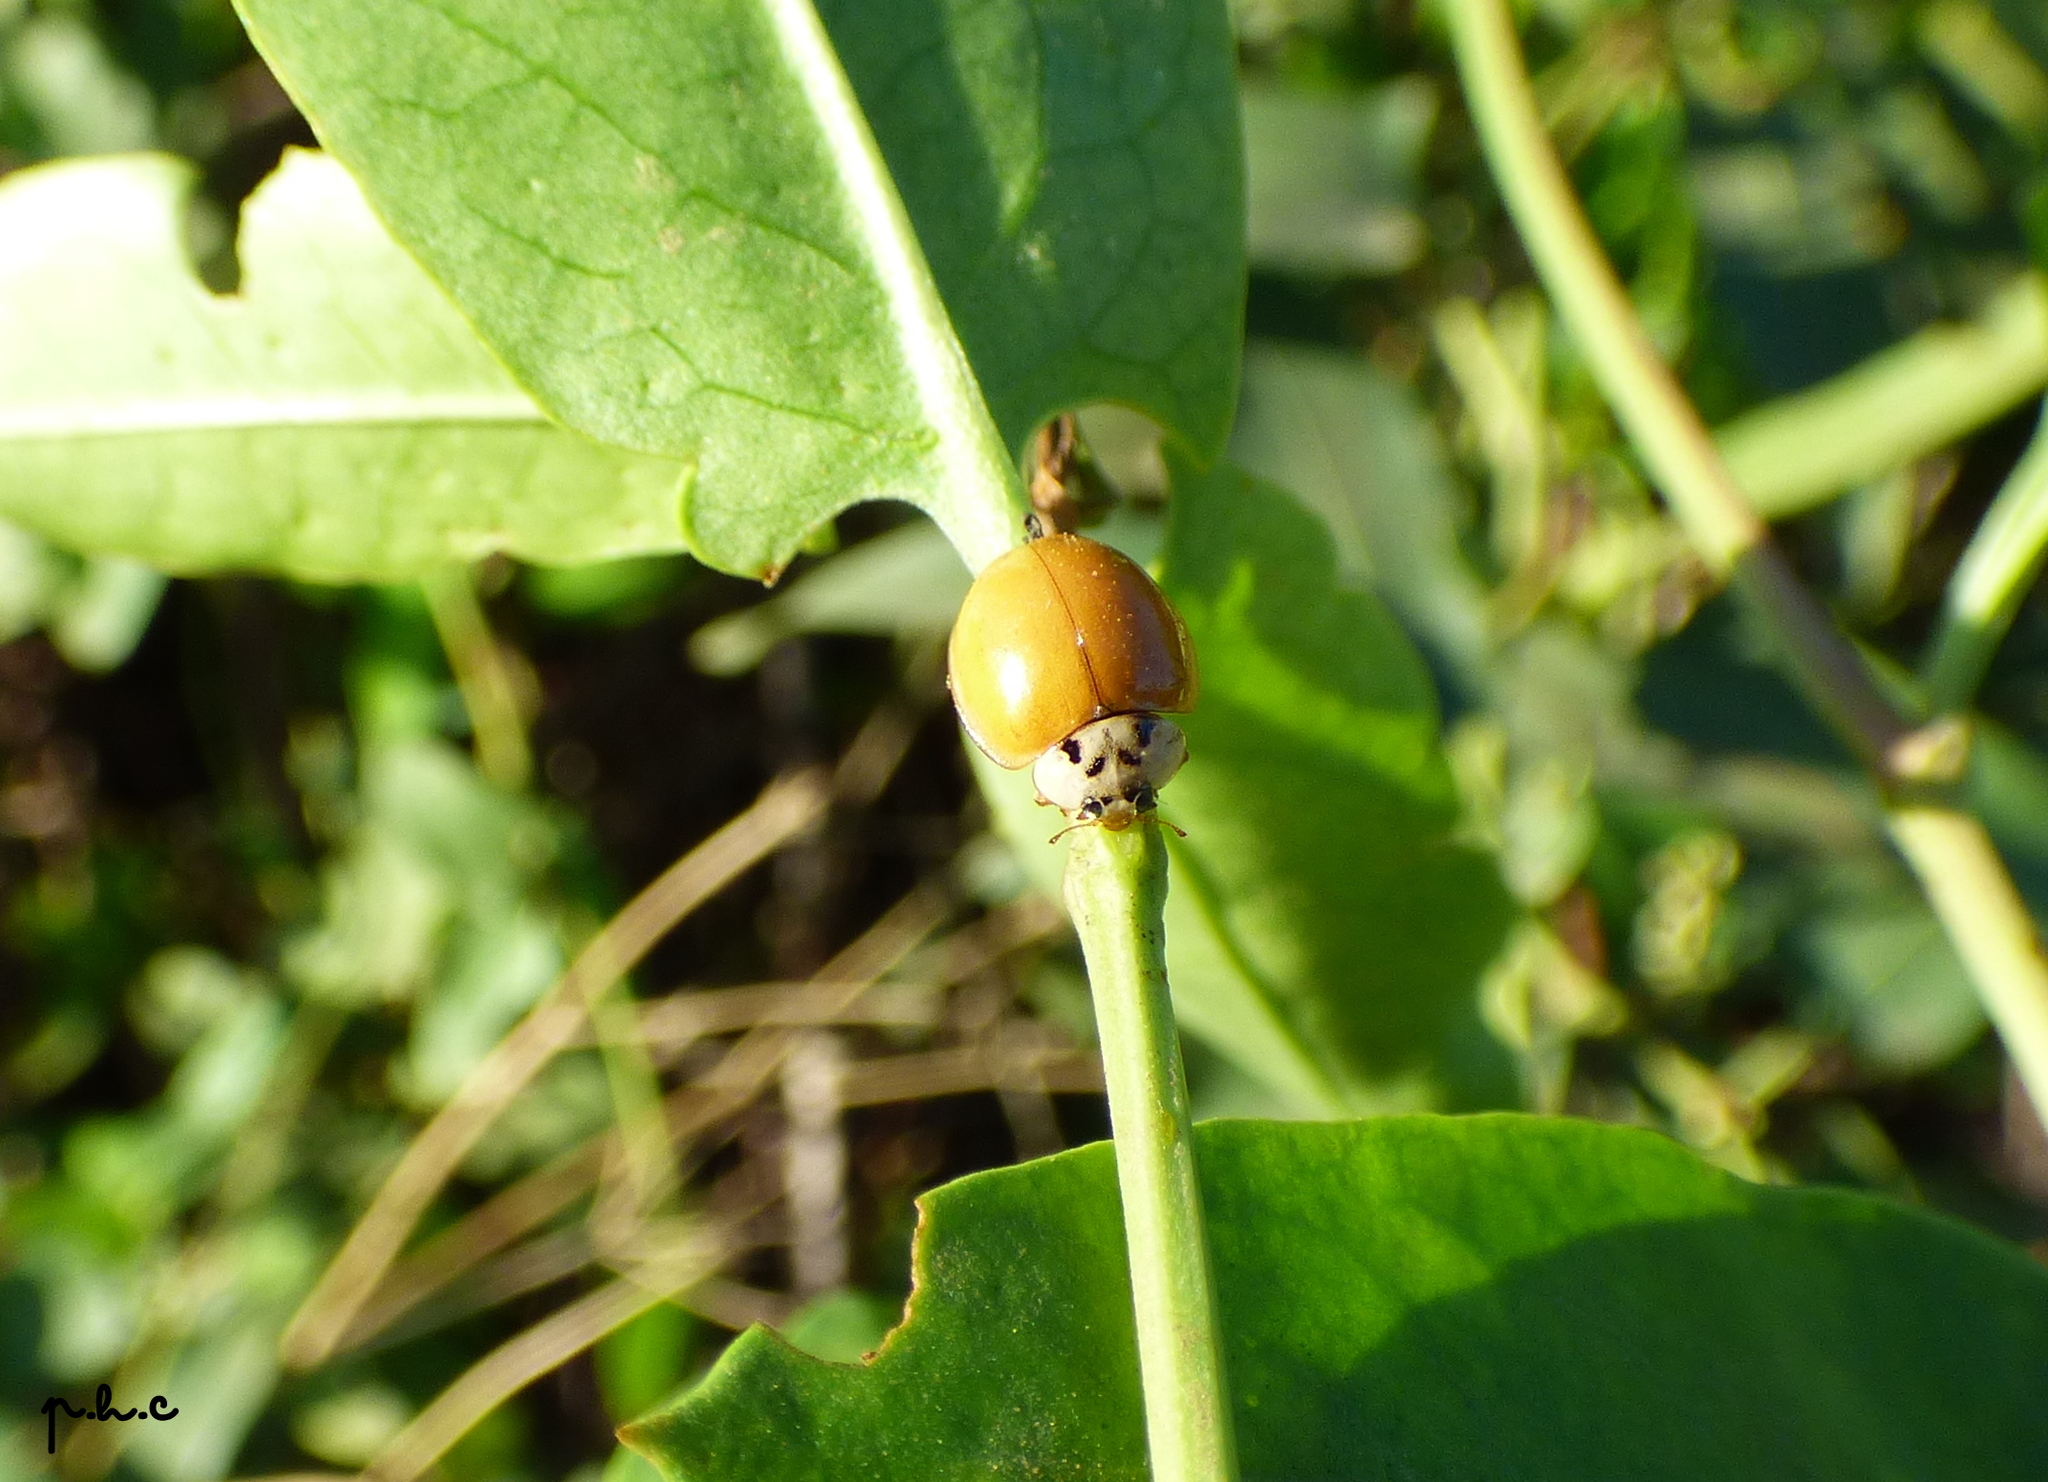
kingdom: Animalia
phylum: Arthropoda
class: Insecta
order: Coleoptera
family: Coccinellidae
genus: Harmonia
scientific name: Harmonia axyridis
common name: Harlequin ladybird
